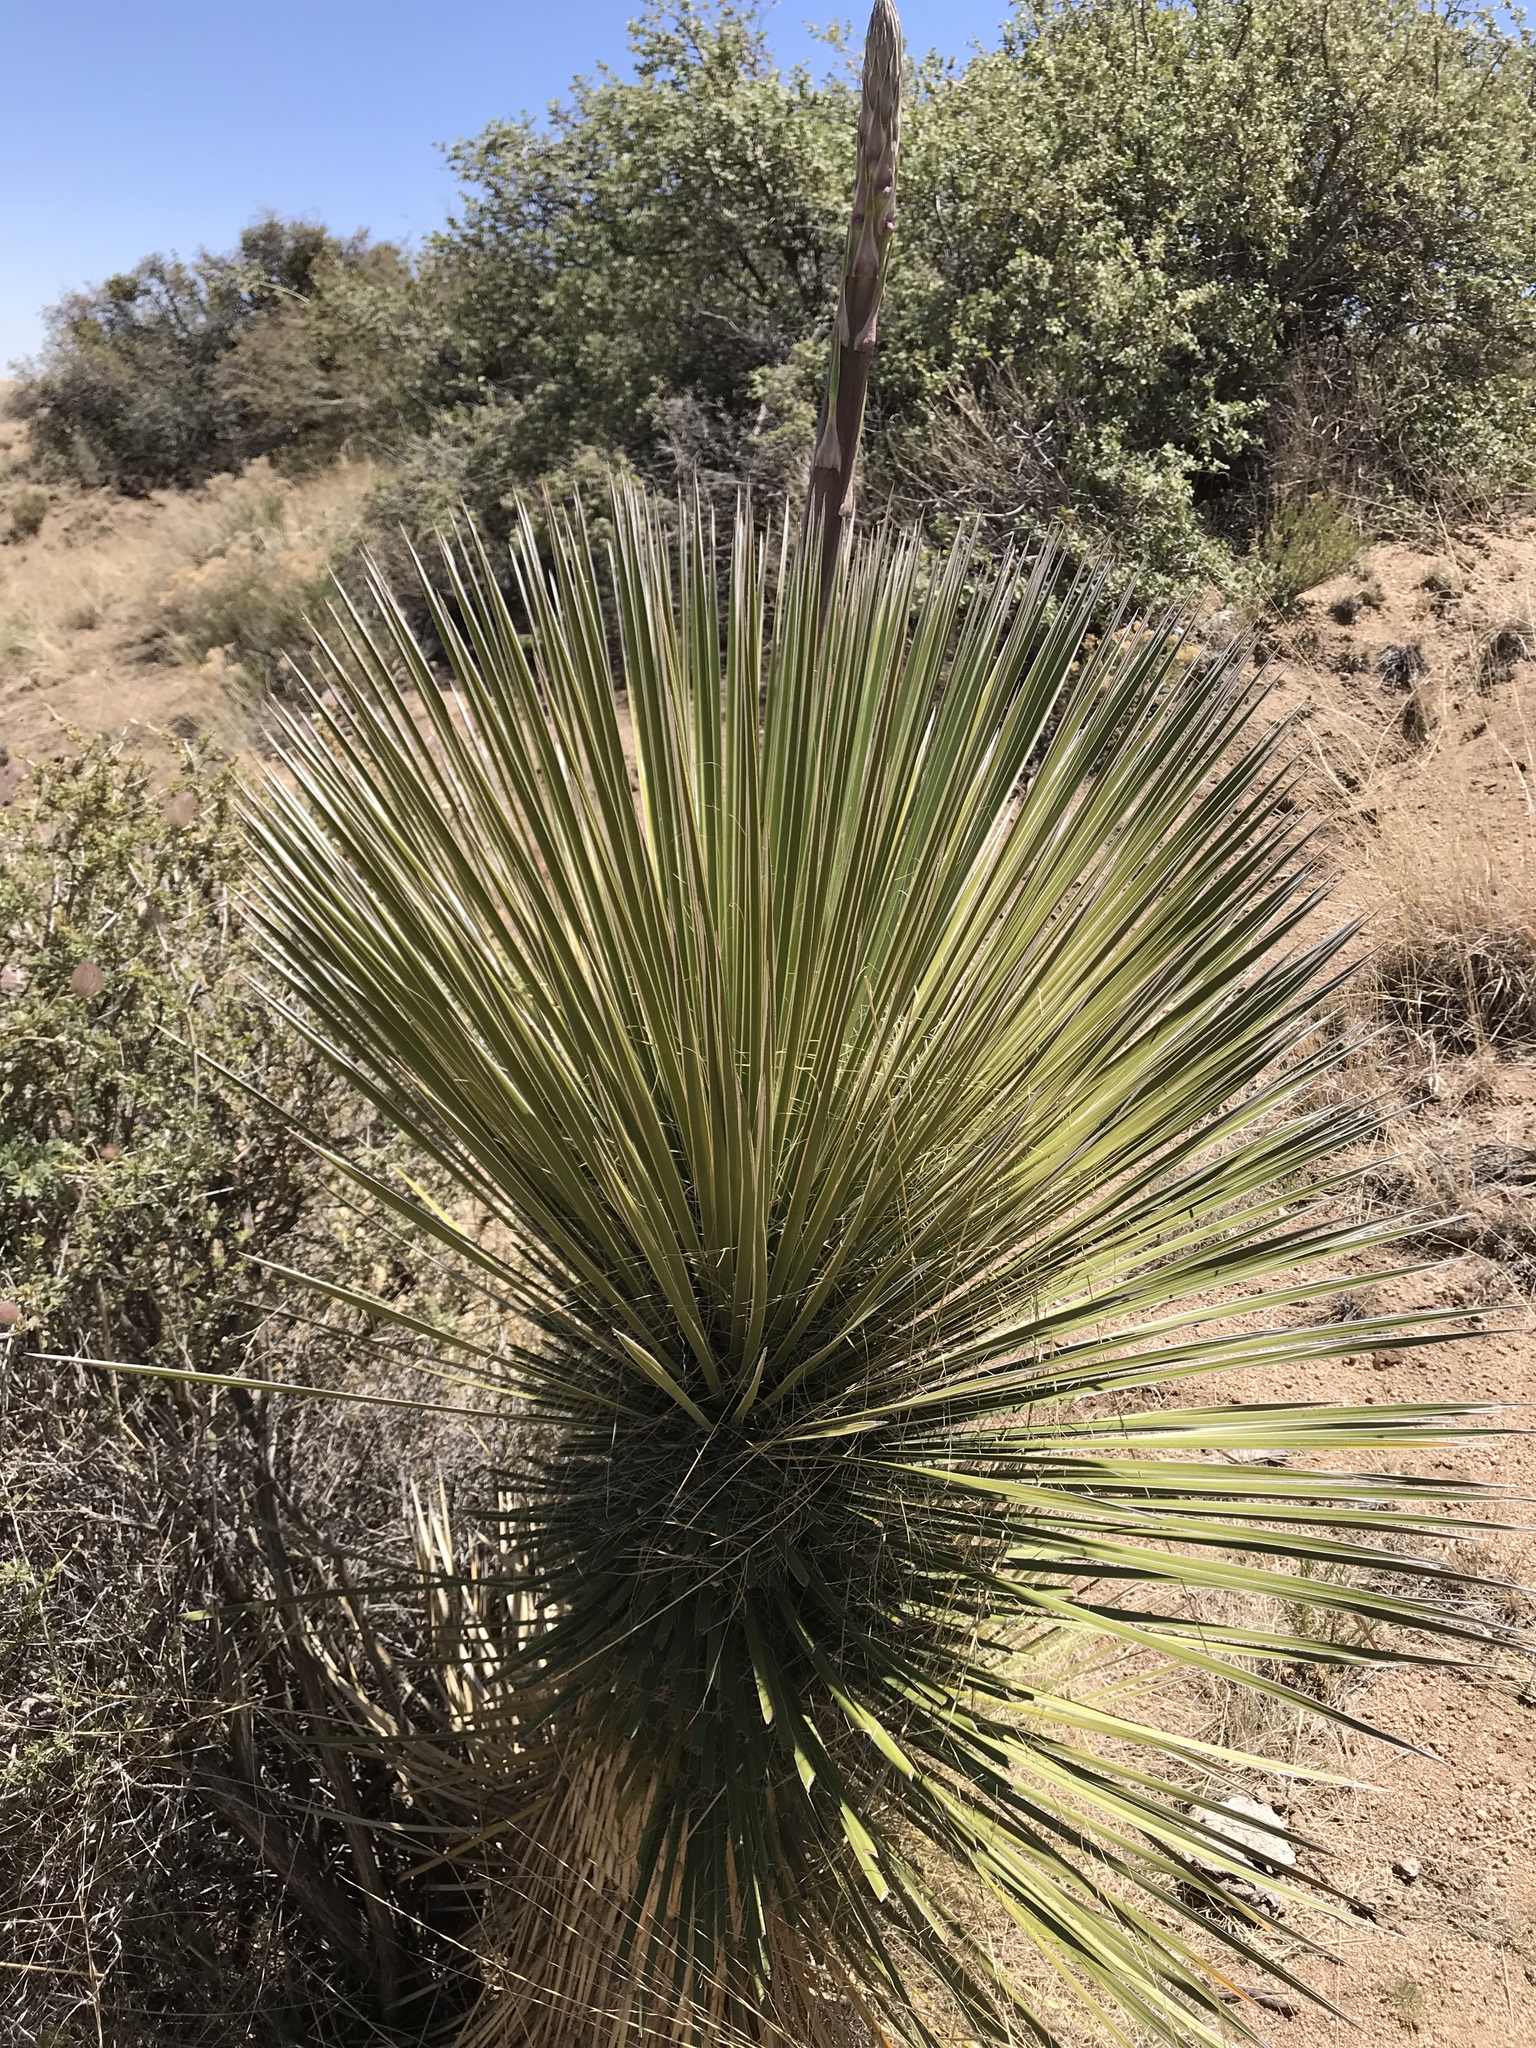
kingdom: Plantae
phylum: Tracheophyta
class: Liliopsida
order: Asparagales
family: Asparagaceae
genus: Yucca
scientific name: Yucca elata
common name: Palmella
